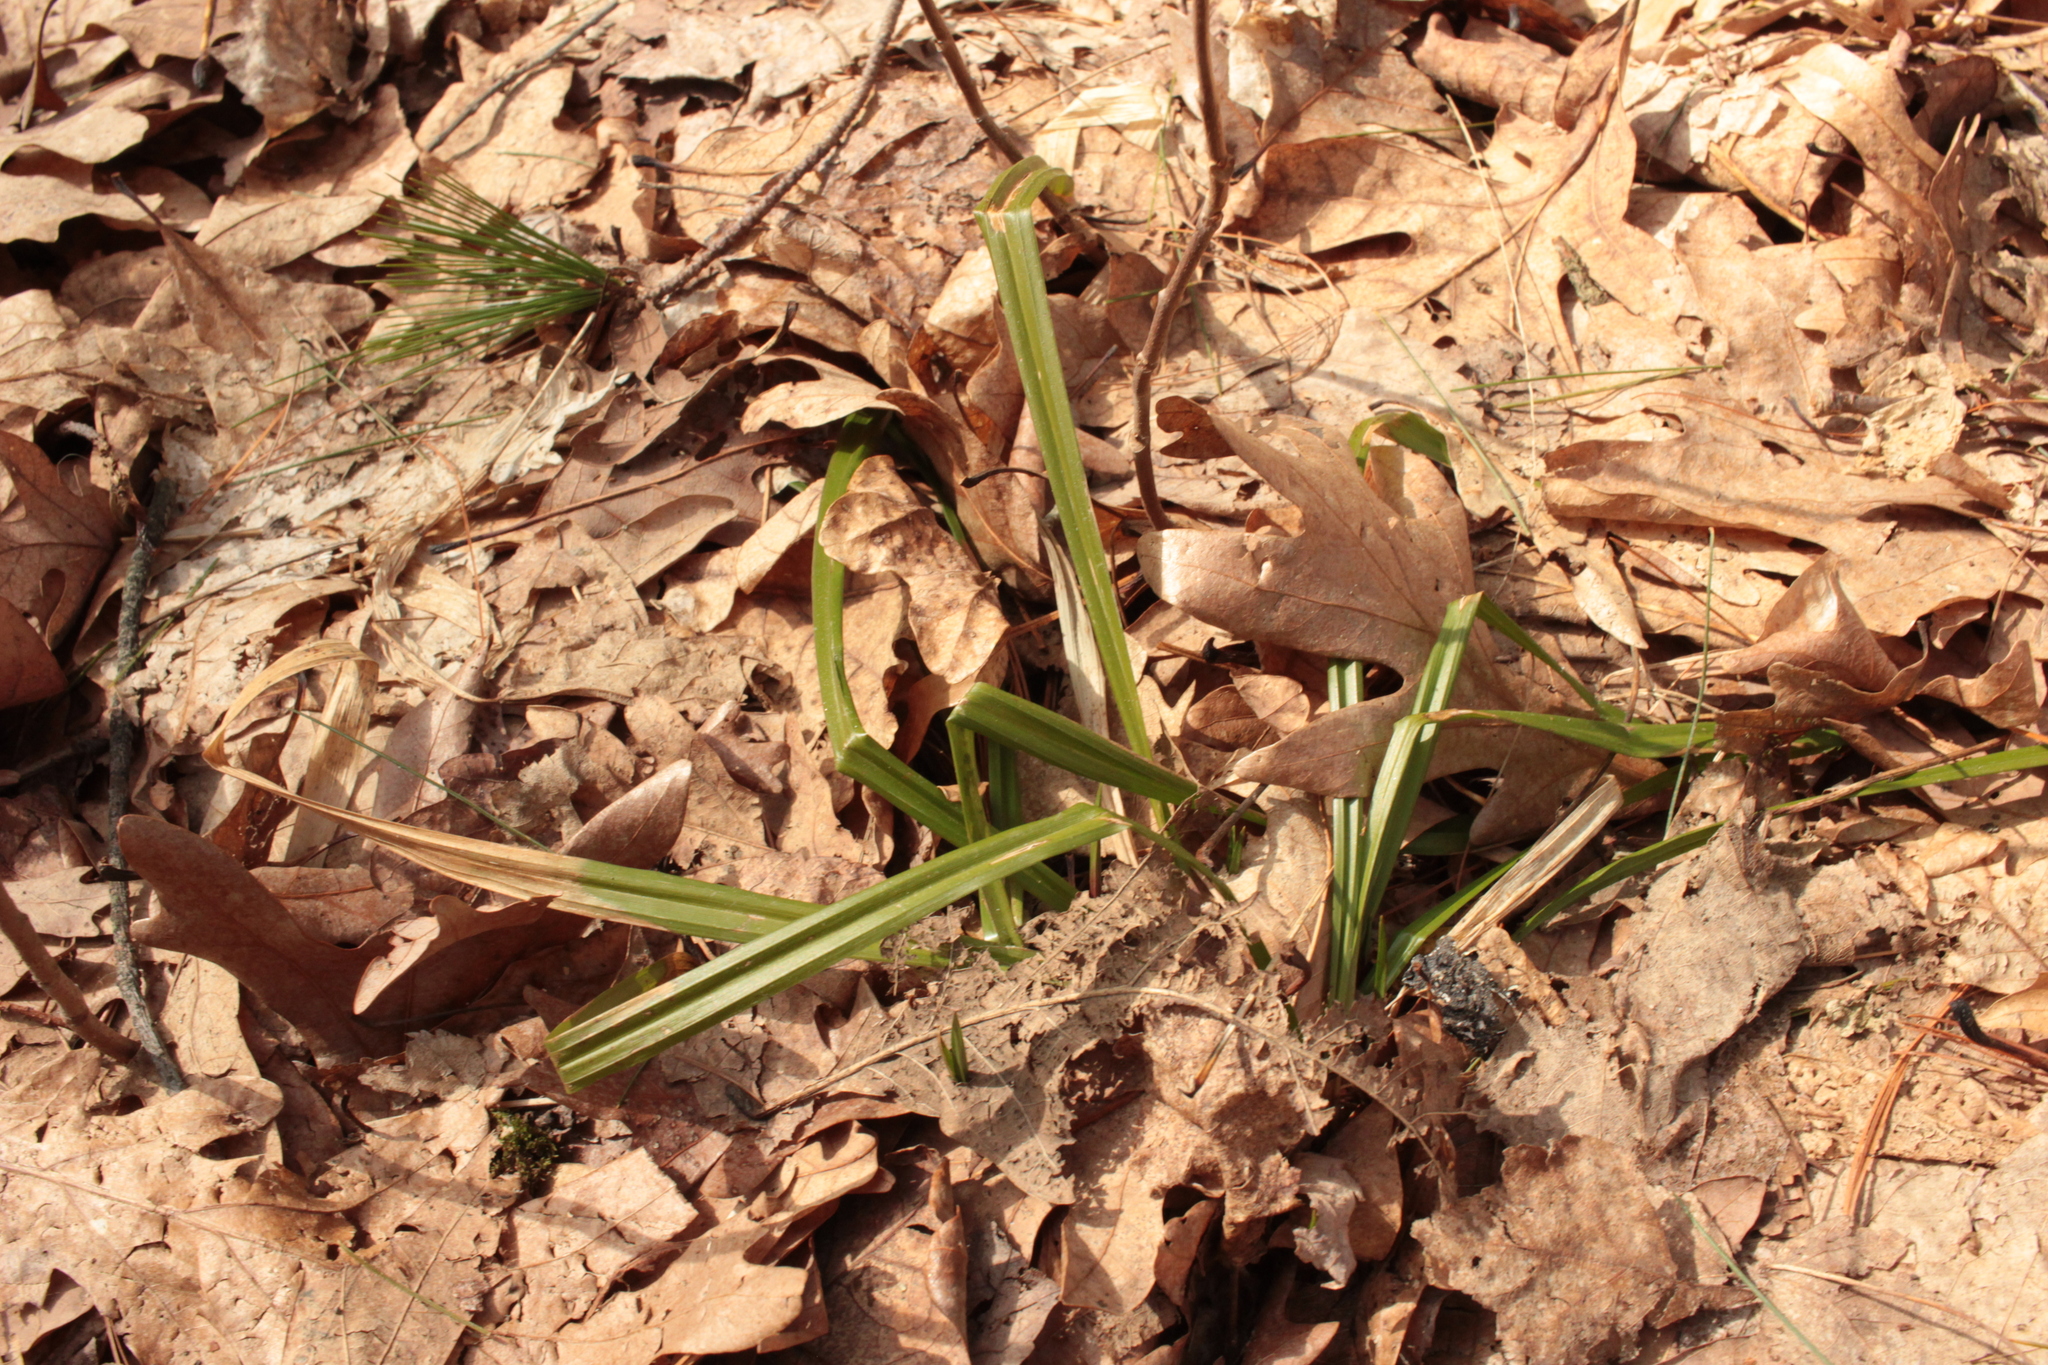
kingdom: Plantae
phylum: Tracheophyta
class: Liliopsida
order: Poales
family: Cyperaceae
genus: Carex
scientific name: Carex
